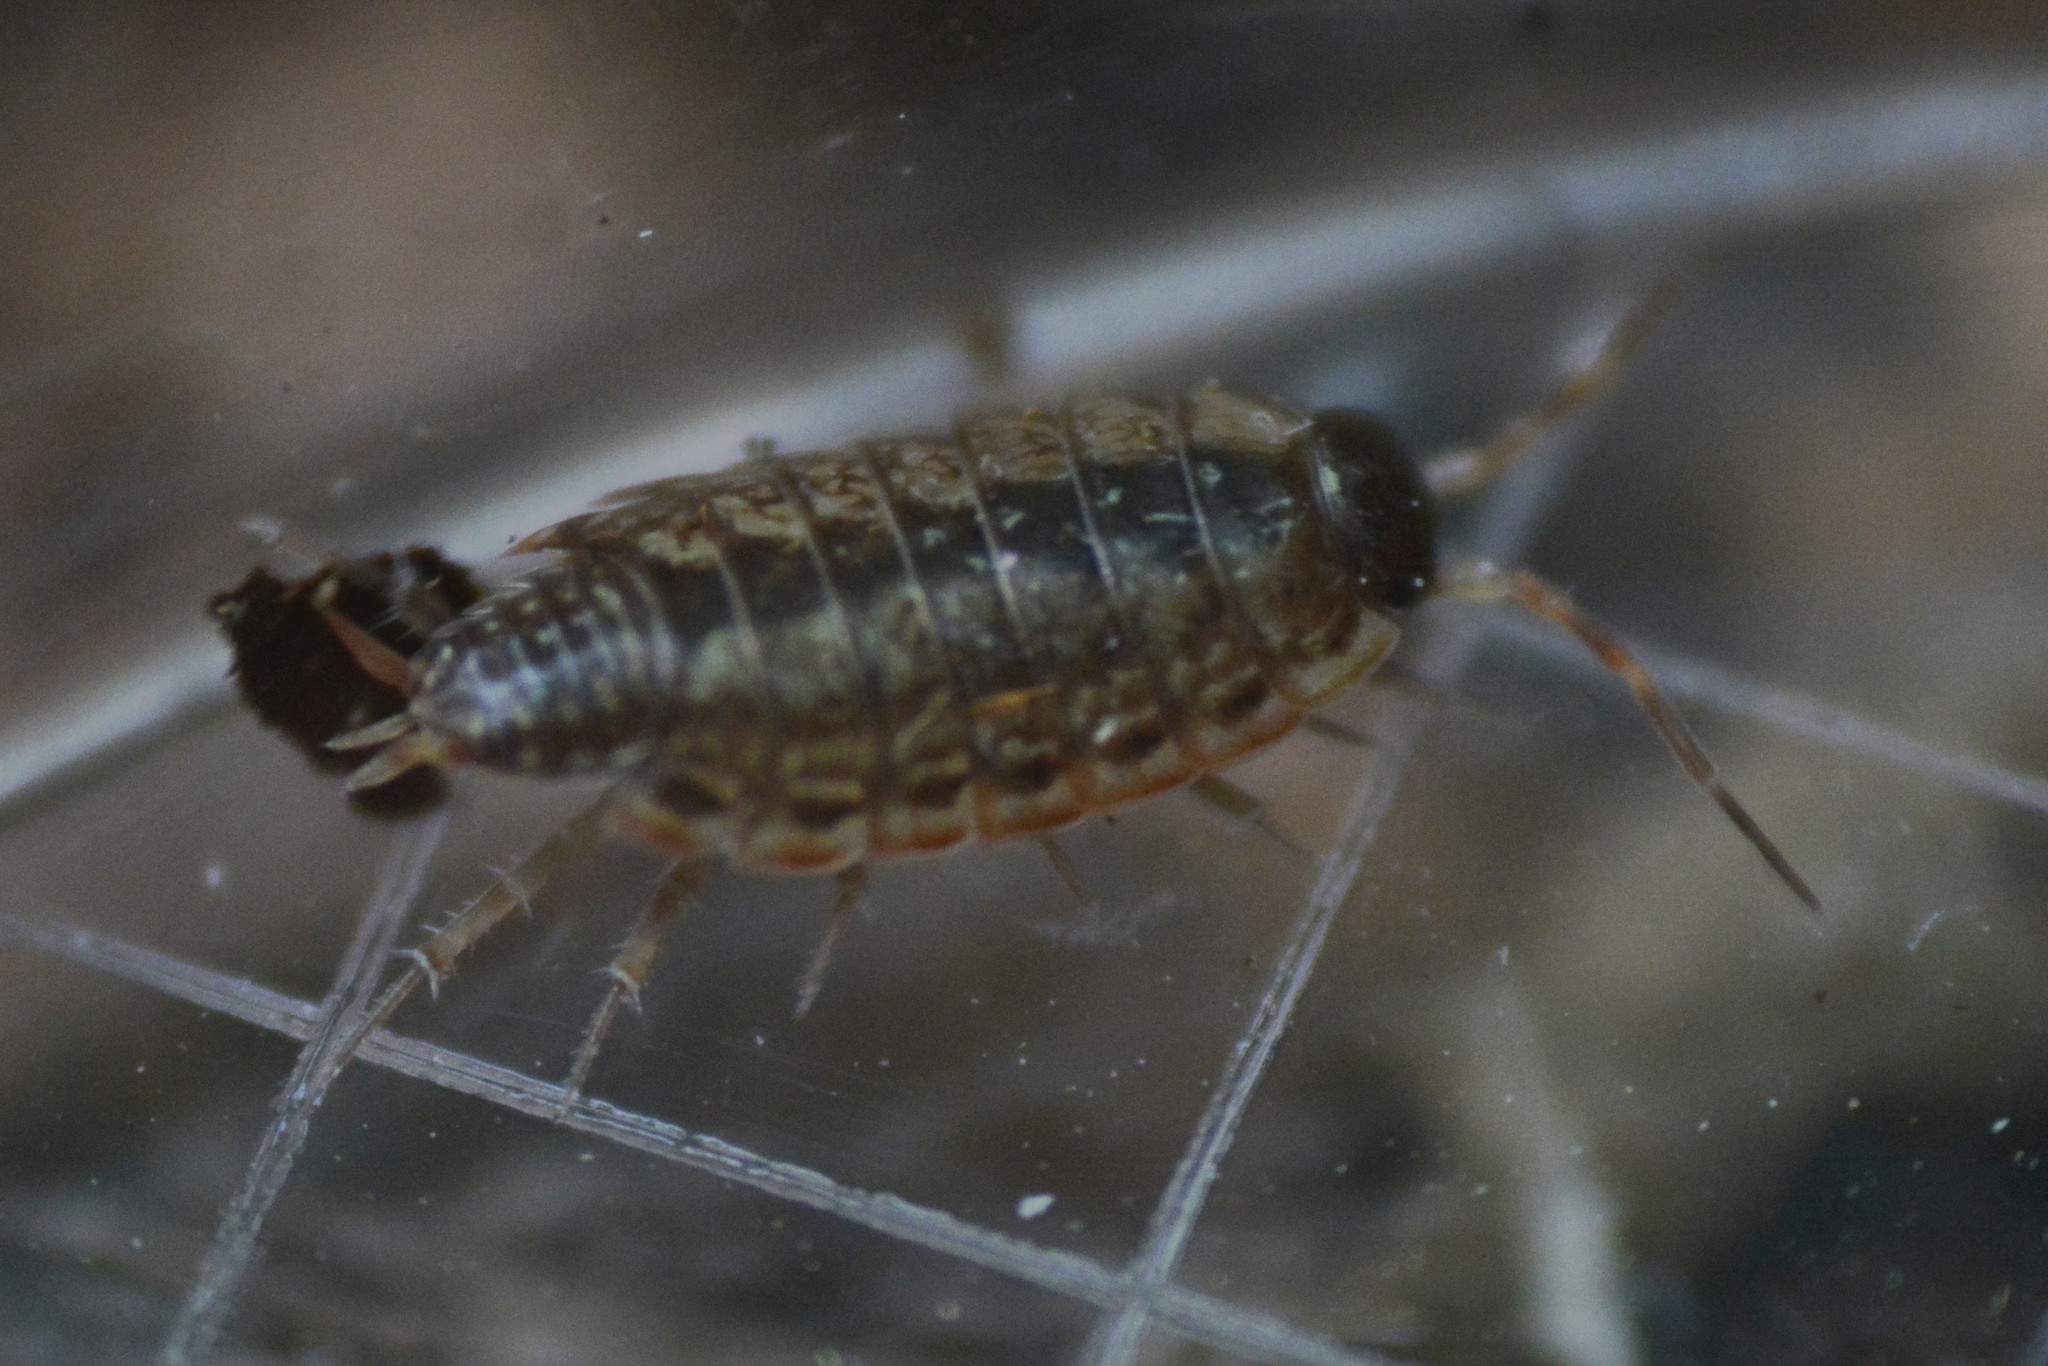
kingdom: Animalia
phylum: Arthropoda
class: Malacostraca
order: Isopoda
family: Philosciidae
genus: Philoscia
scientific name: Philoscia muscorum
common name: Common striped woodlouse
